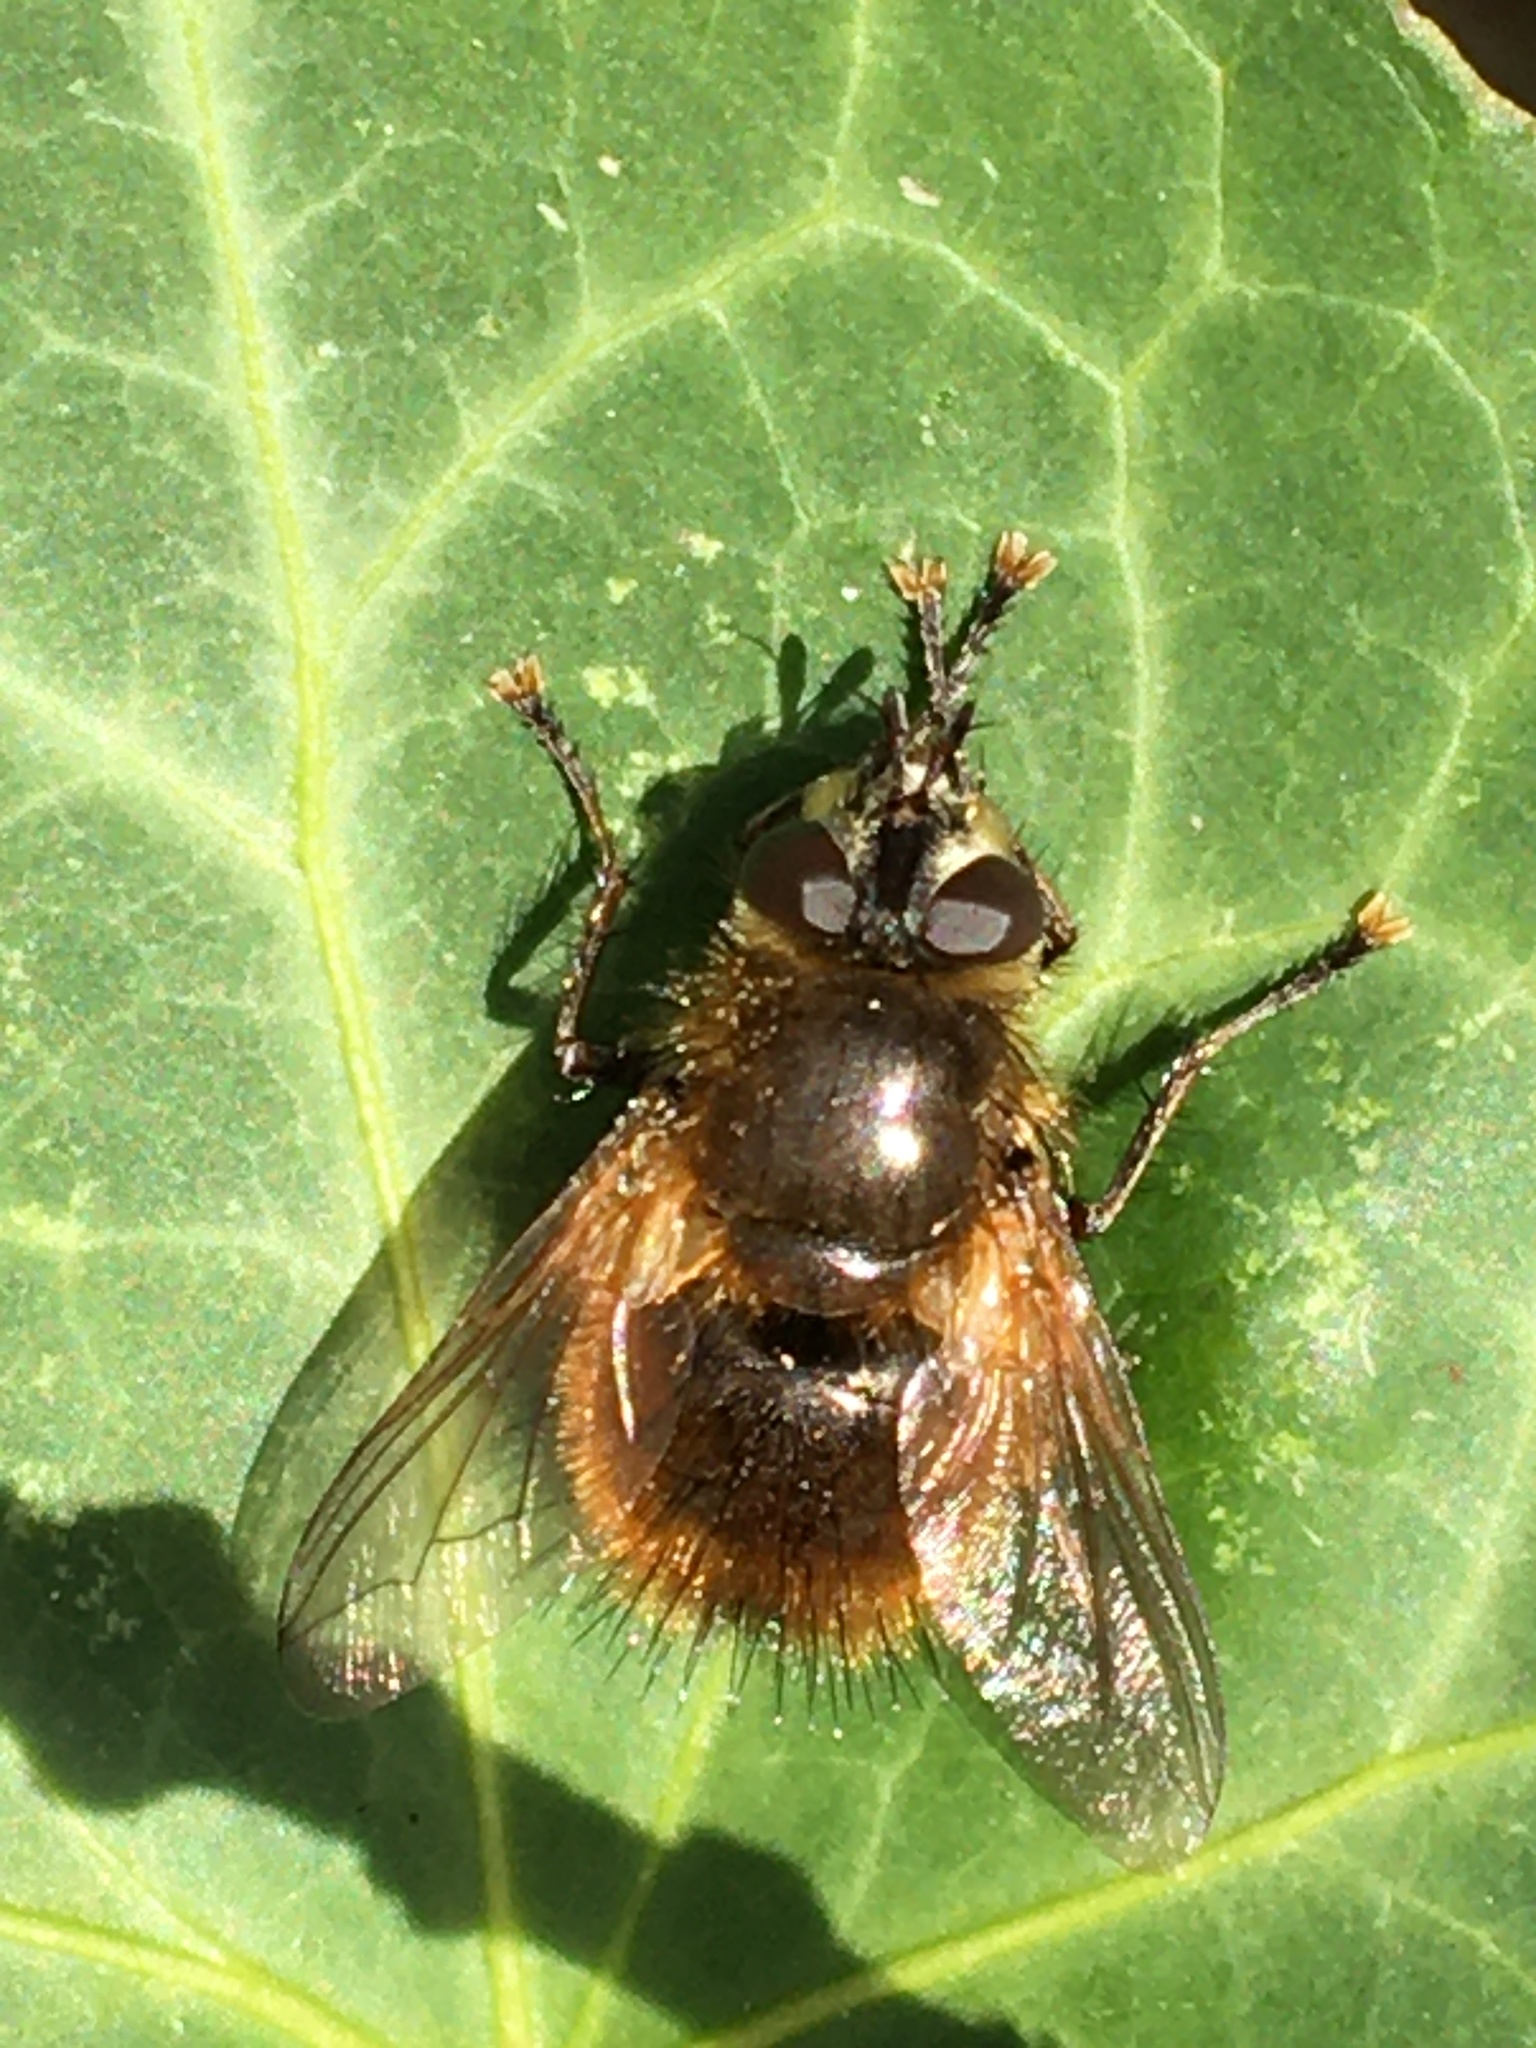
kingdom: Animalia
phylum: Arthropoda
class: Insecta
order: Diptera
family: Tachinidae
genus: Tachina
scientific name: Tachina lurida
